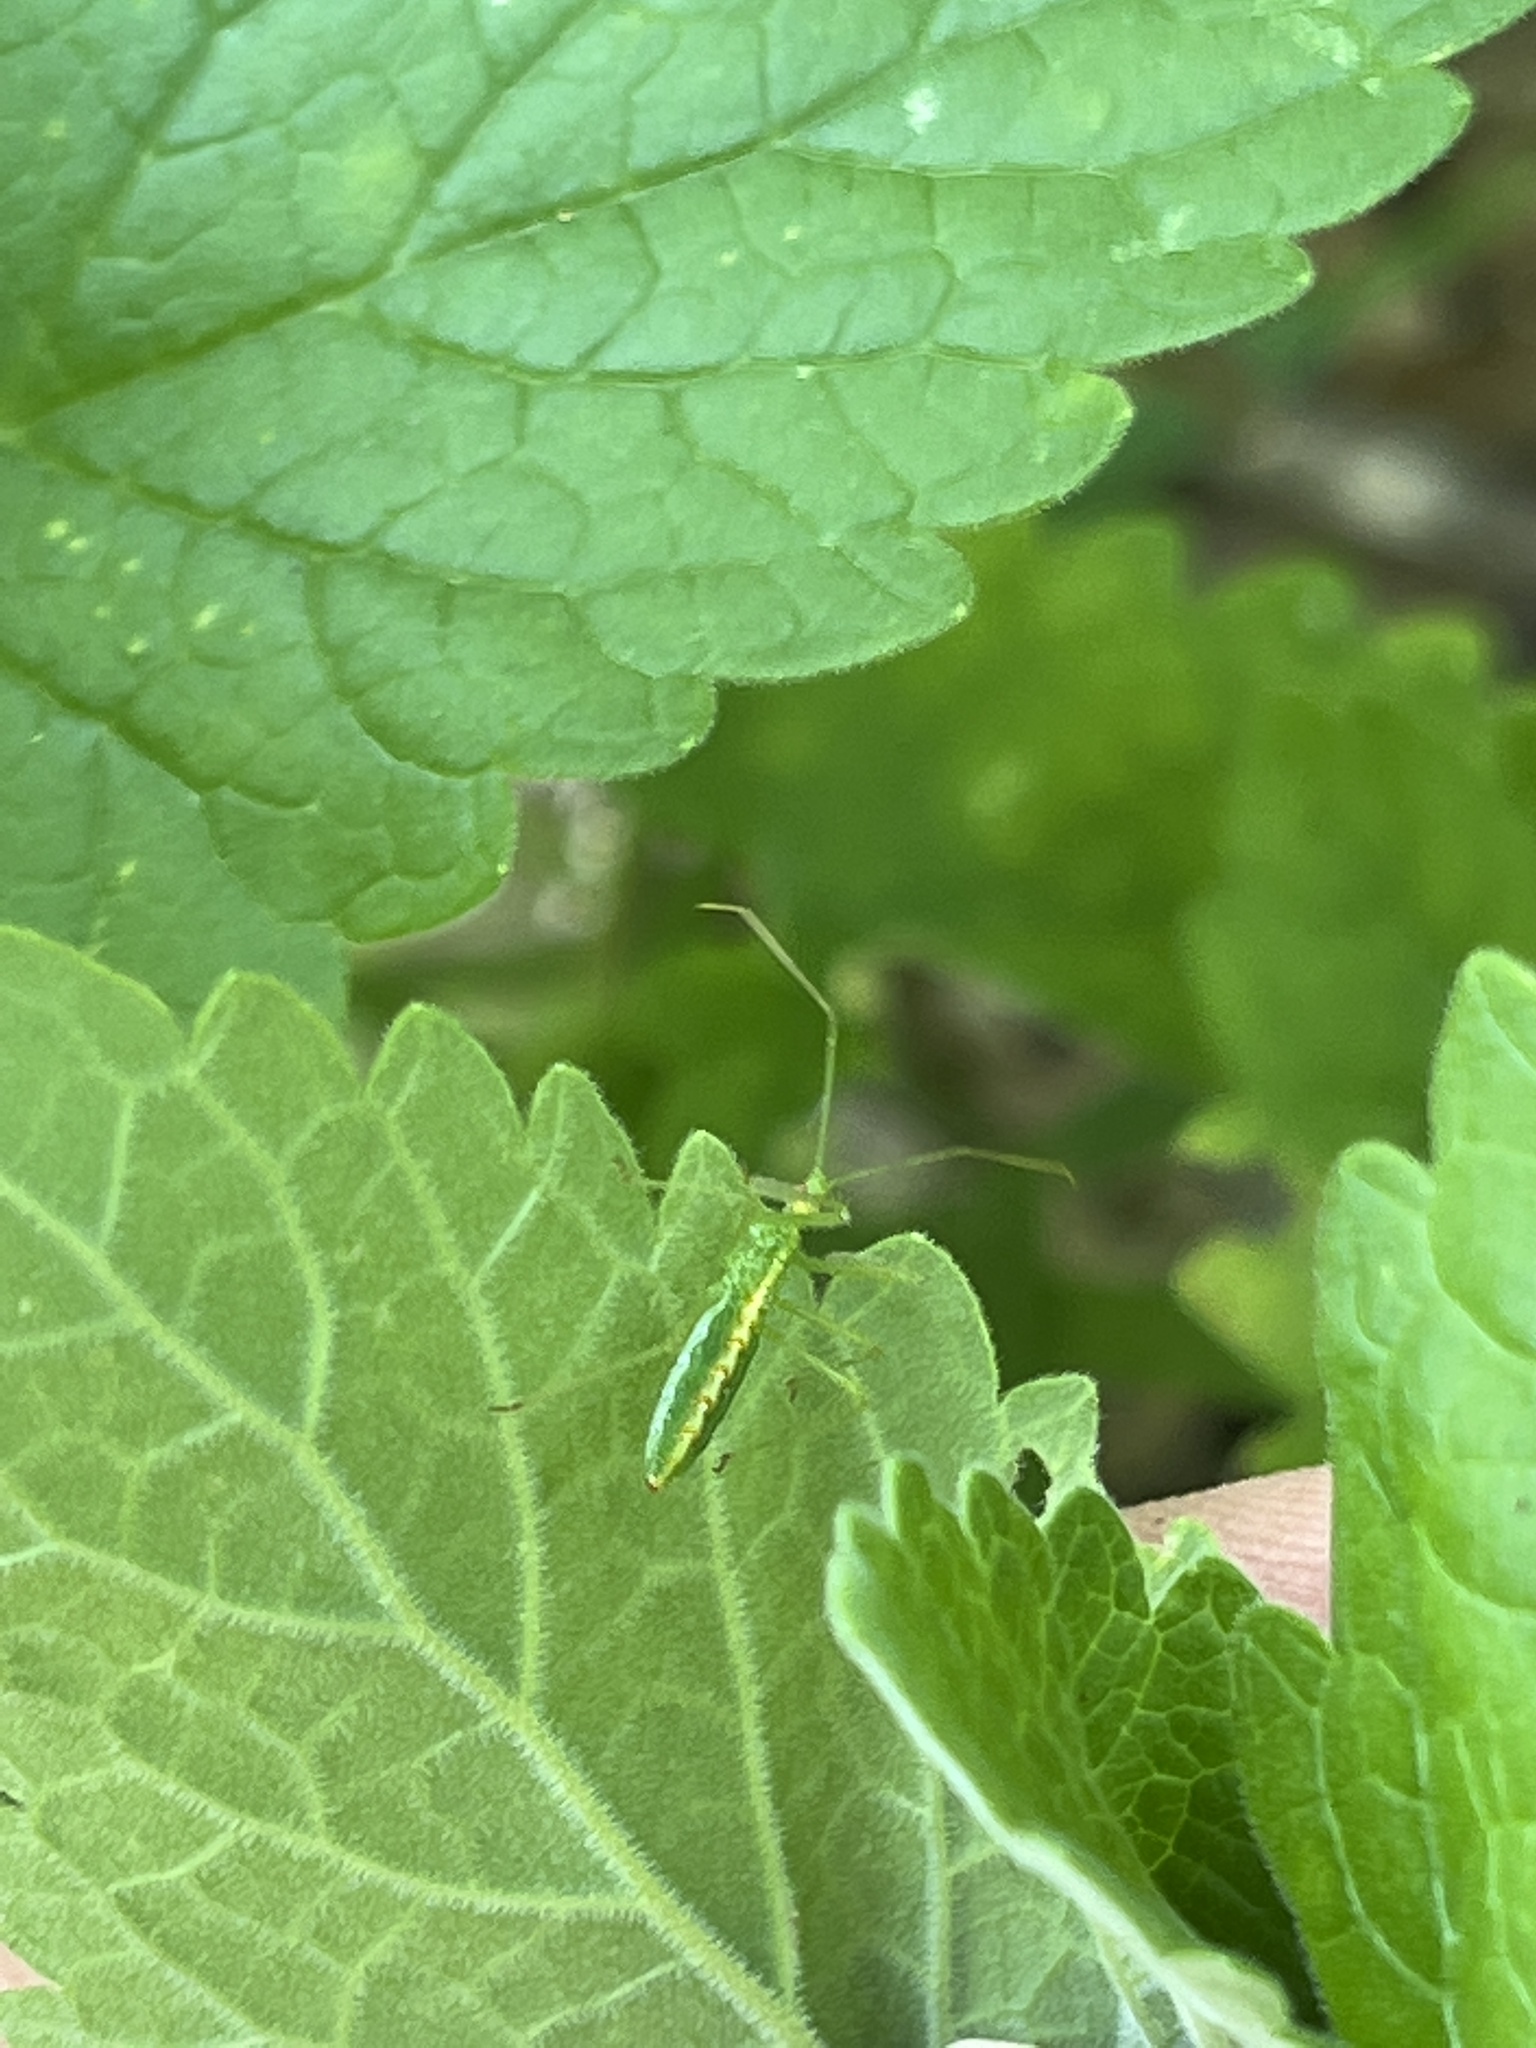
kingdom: Animalia
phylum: Arthropoda
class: Insecta
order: Hemiptera
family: Reduviidae
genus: Zelus
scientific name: Zelus luridus
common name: Pale green assassin bug
